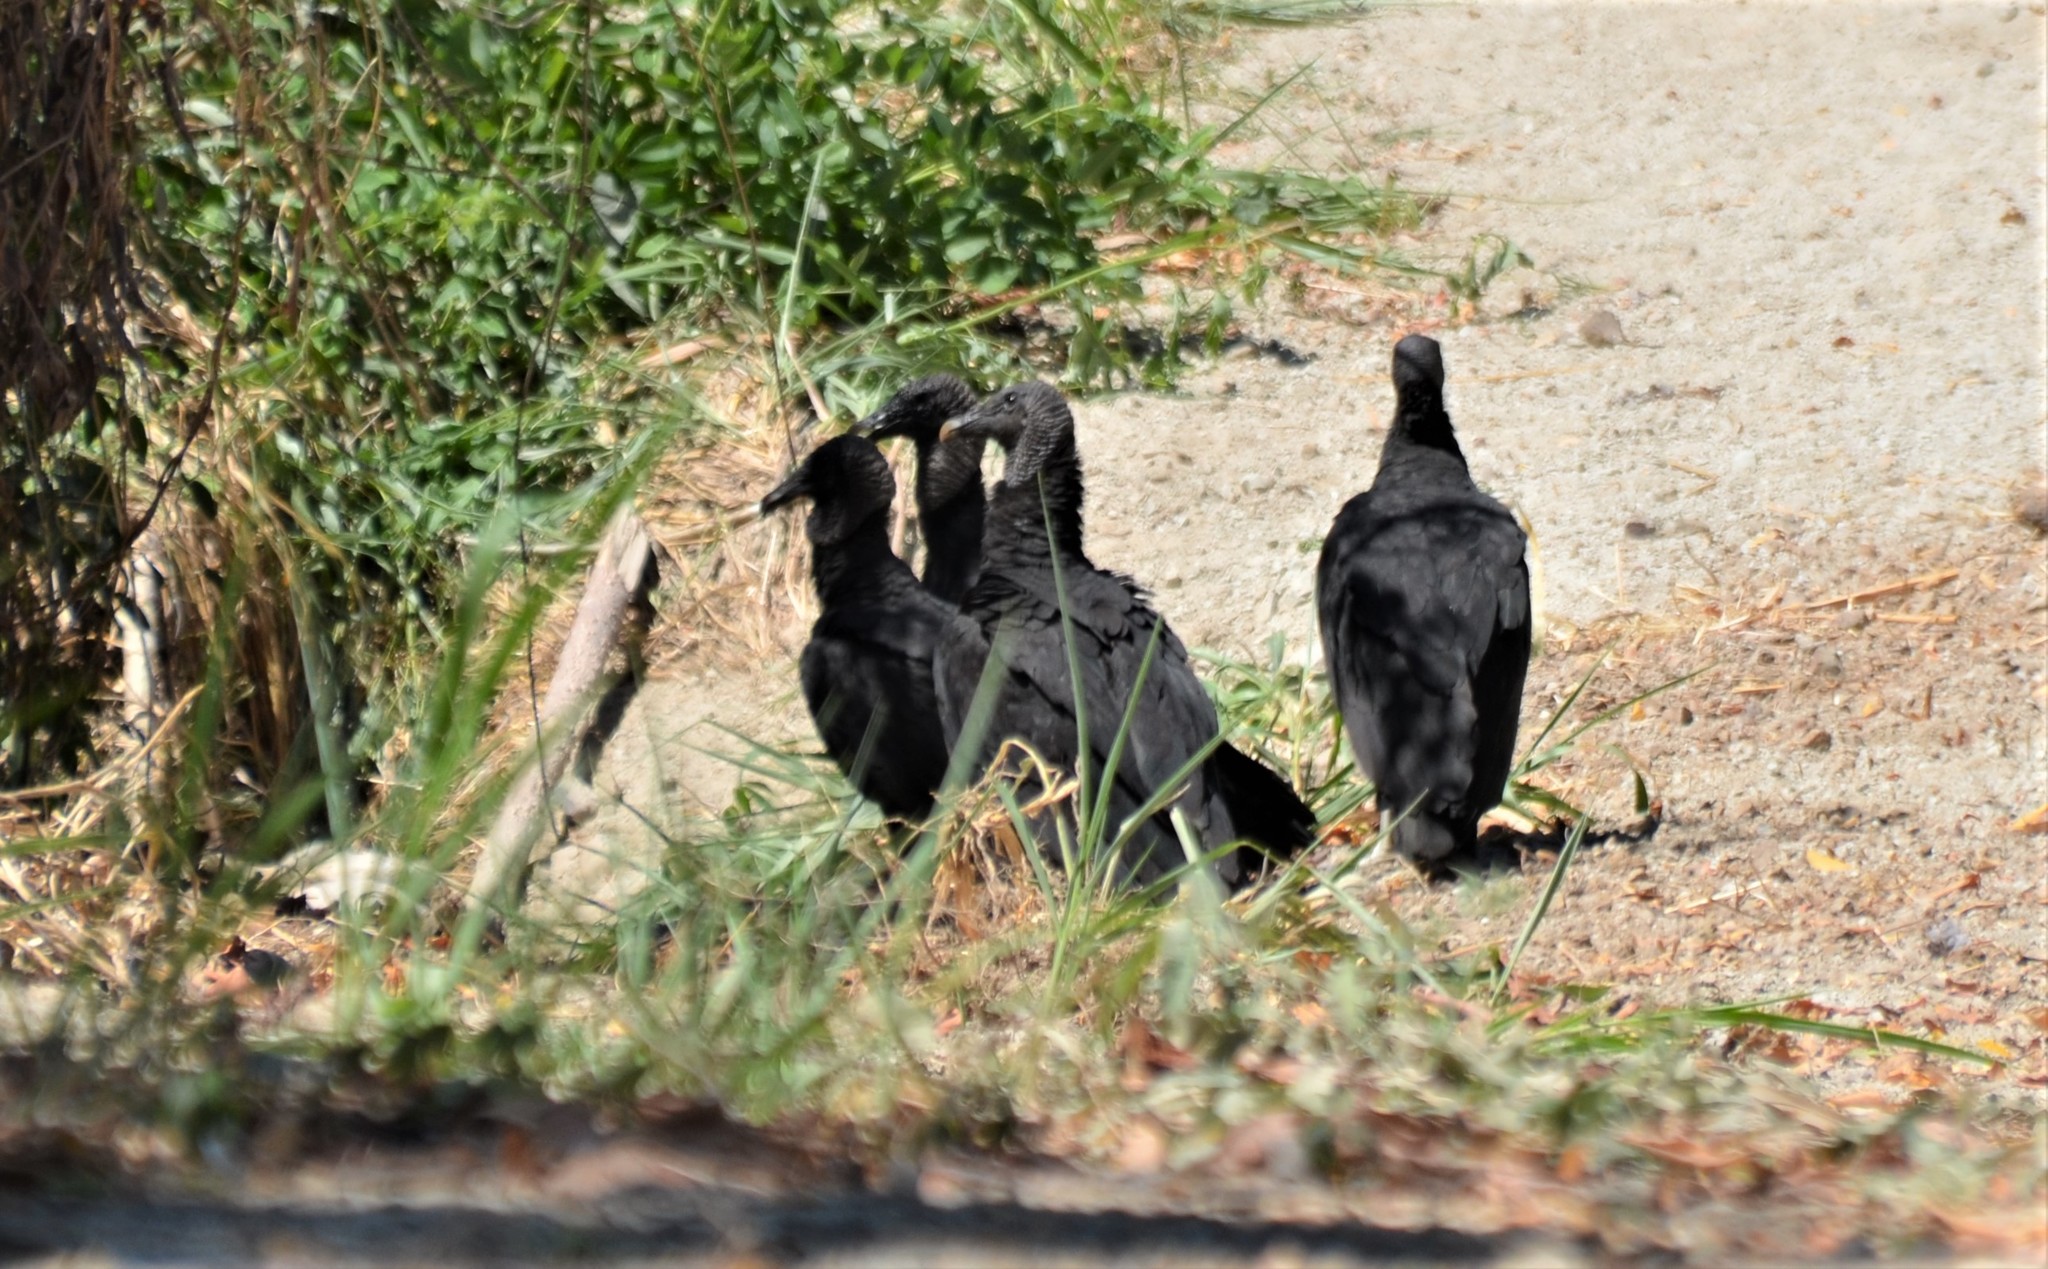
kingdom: Animalia
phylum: Chordata
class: Aves
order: Accipitriformes
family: Cathartidae
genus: Coragyps
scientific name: Coragyps atratus
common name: Black vulture
